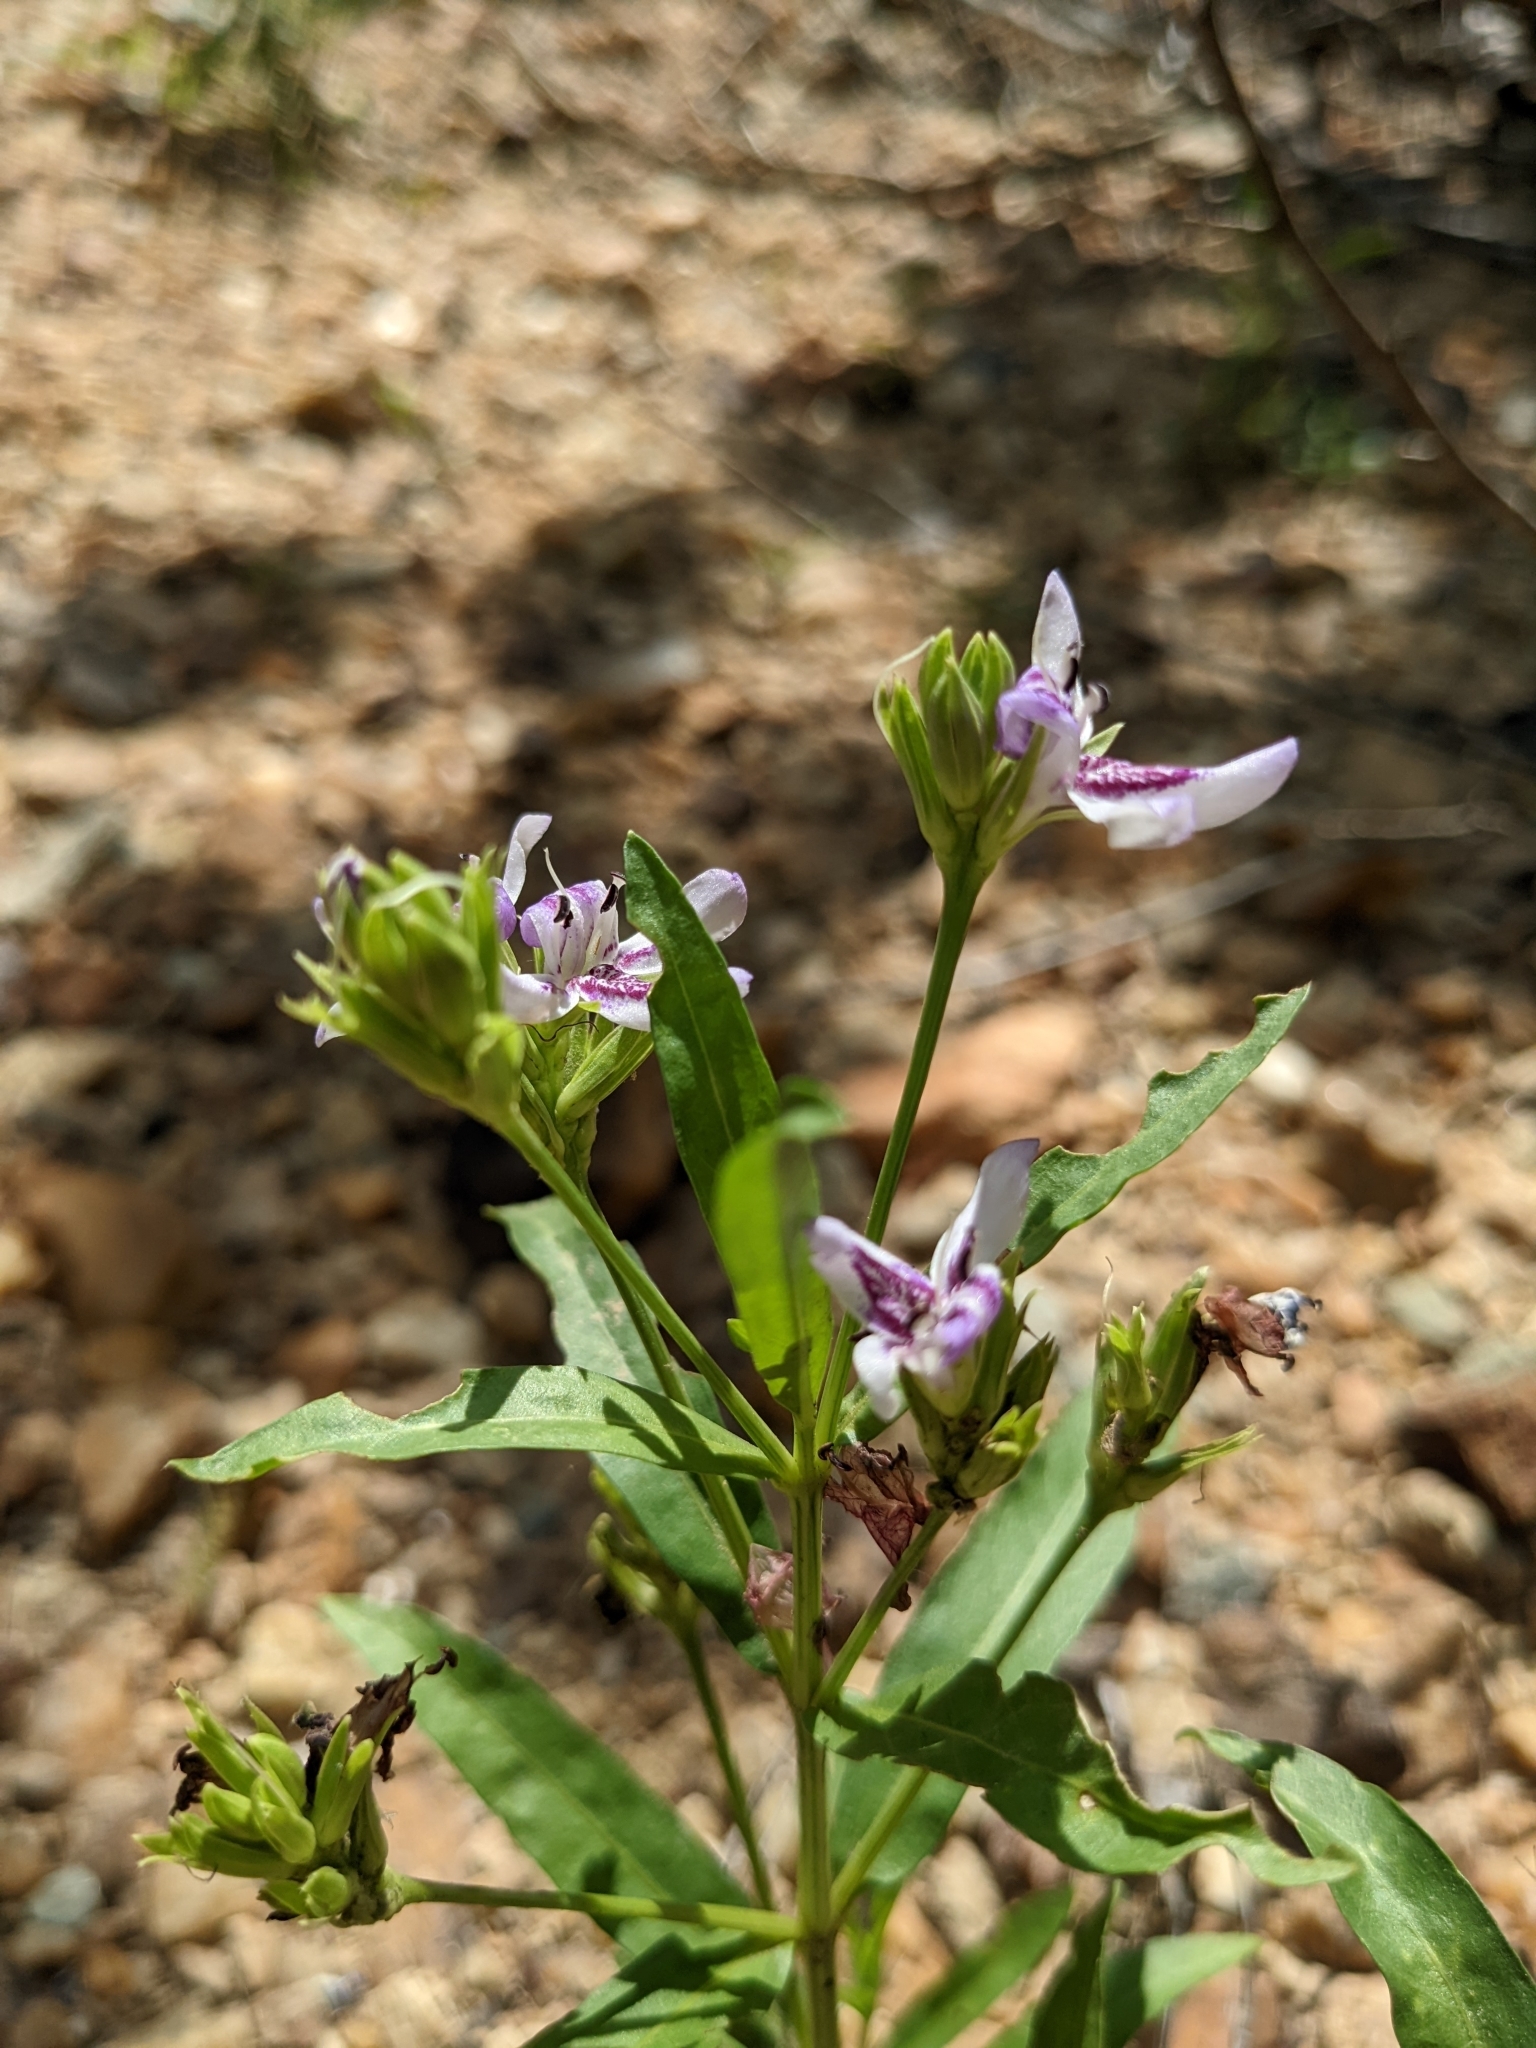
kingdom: Plantae
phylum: Tracheophyta
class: Magnoliopsida
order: Lamiales
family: Acanthaceae
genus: Dianthera
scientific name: Dianthera americana
